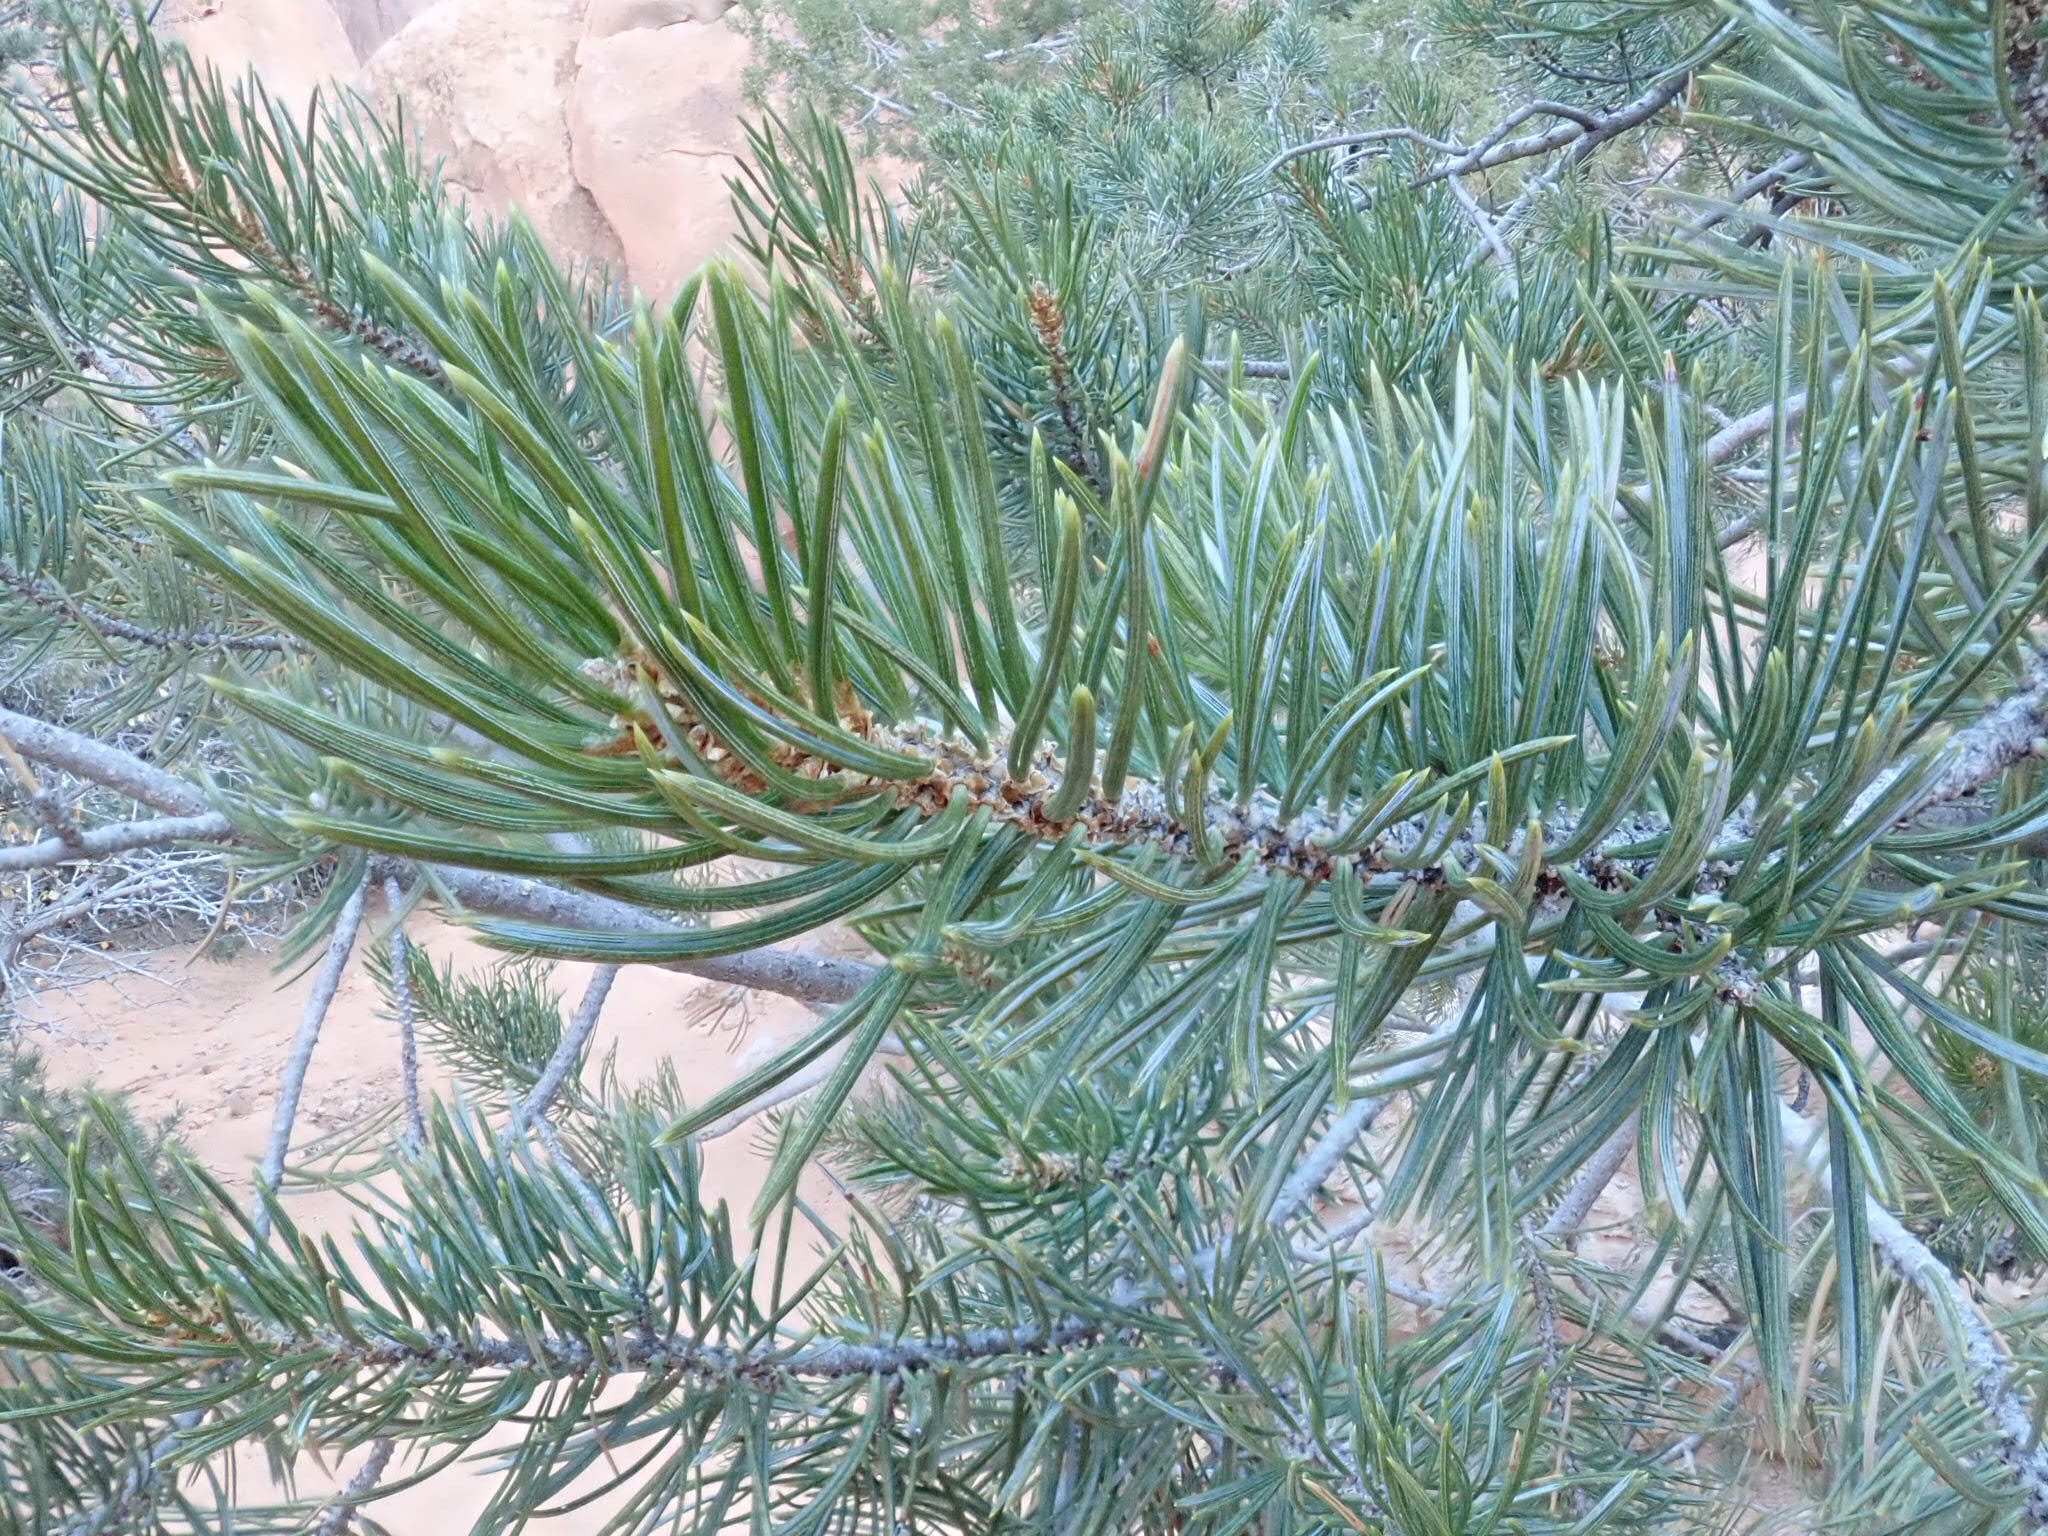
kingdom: Plantae
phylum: Tracheophyta
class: Pinopsida
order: Pinales
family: Pinaceae
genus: Pinus
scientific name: Pinus edulis
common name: Colorado pinyon
